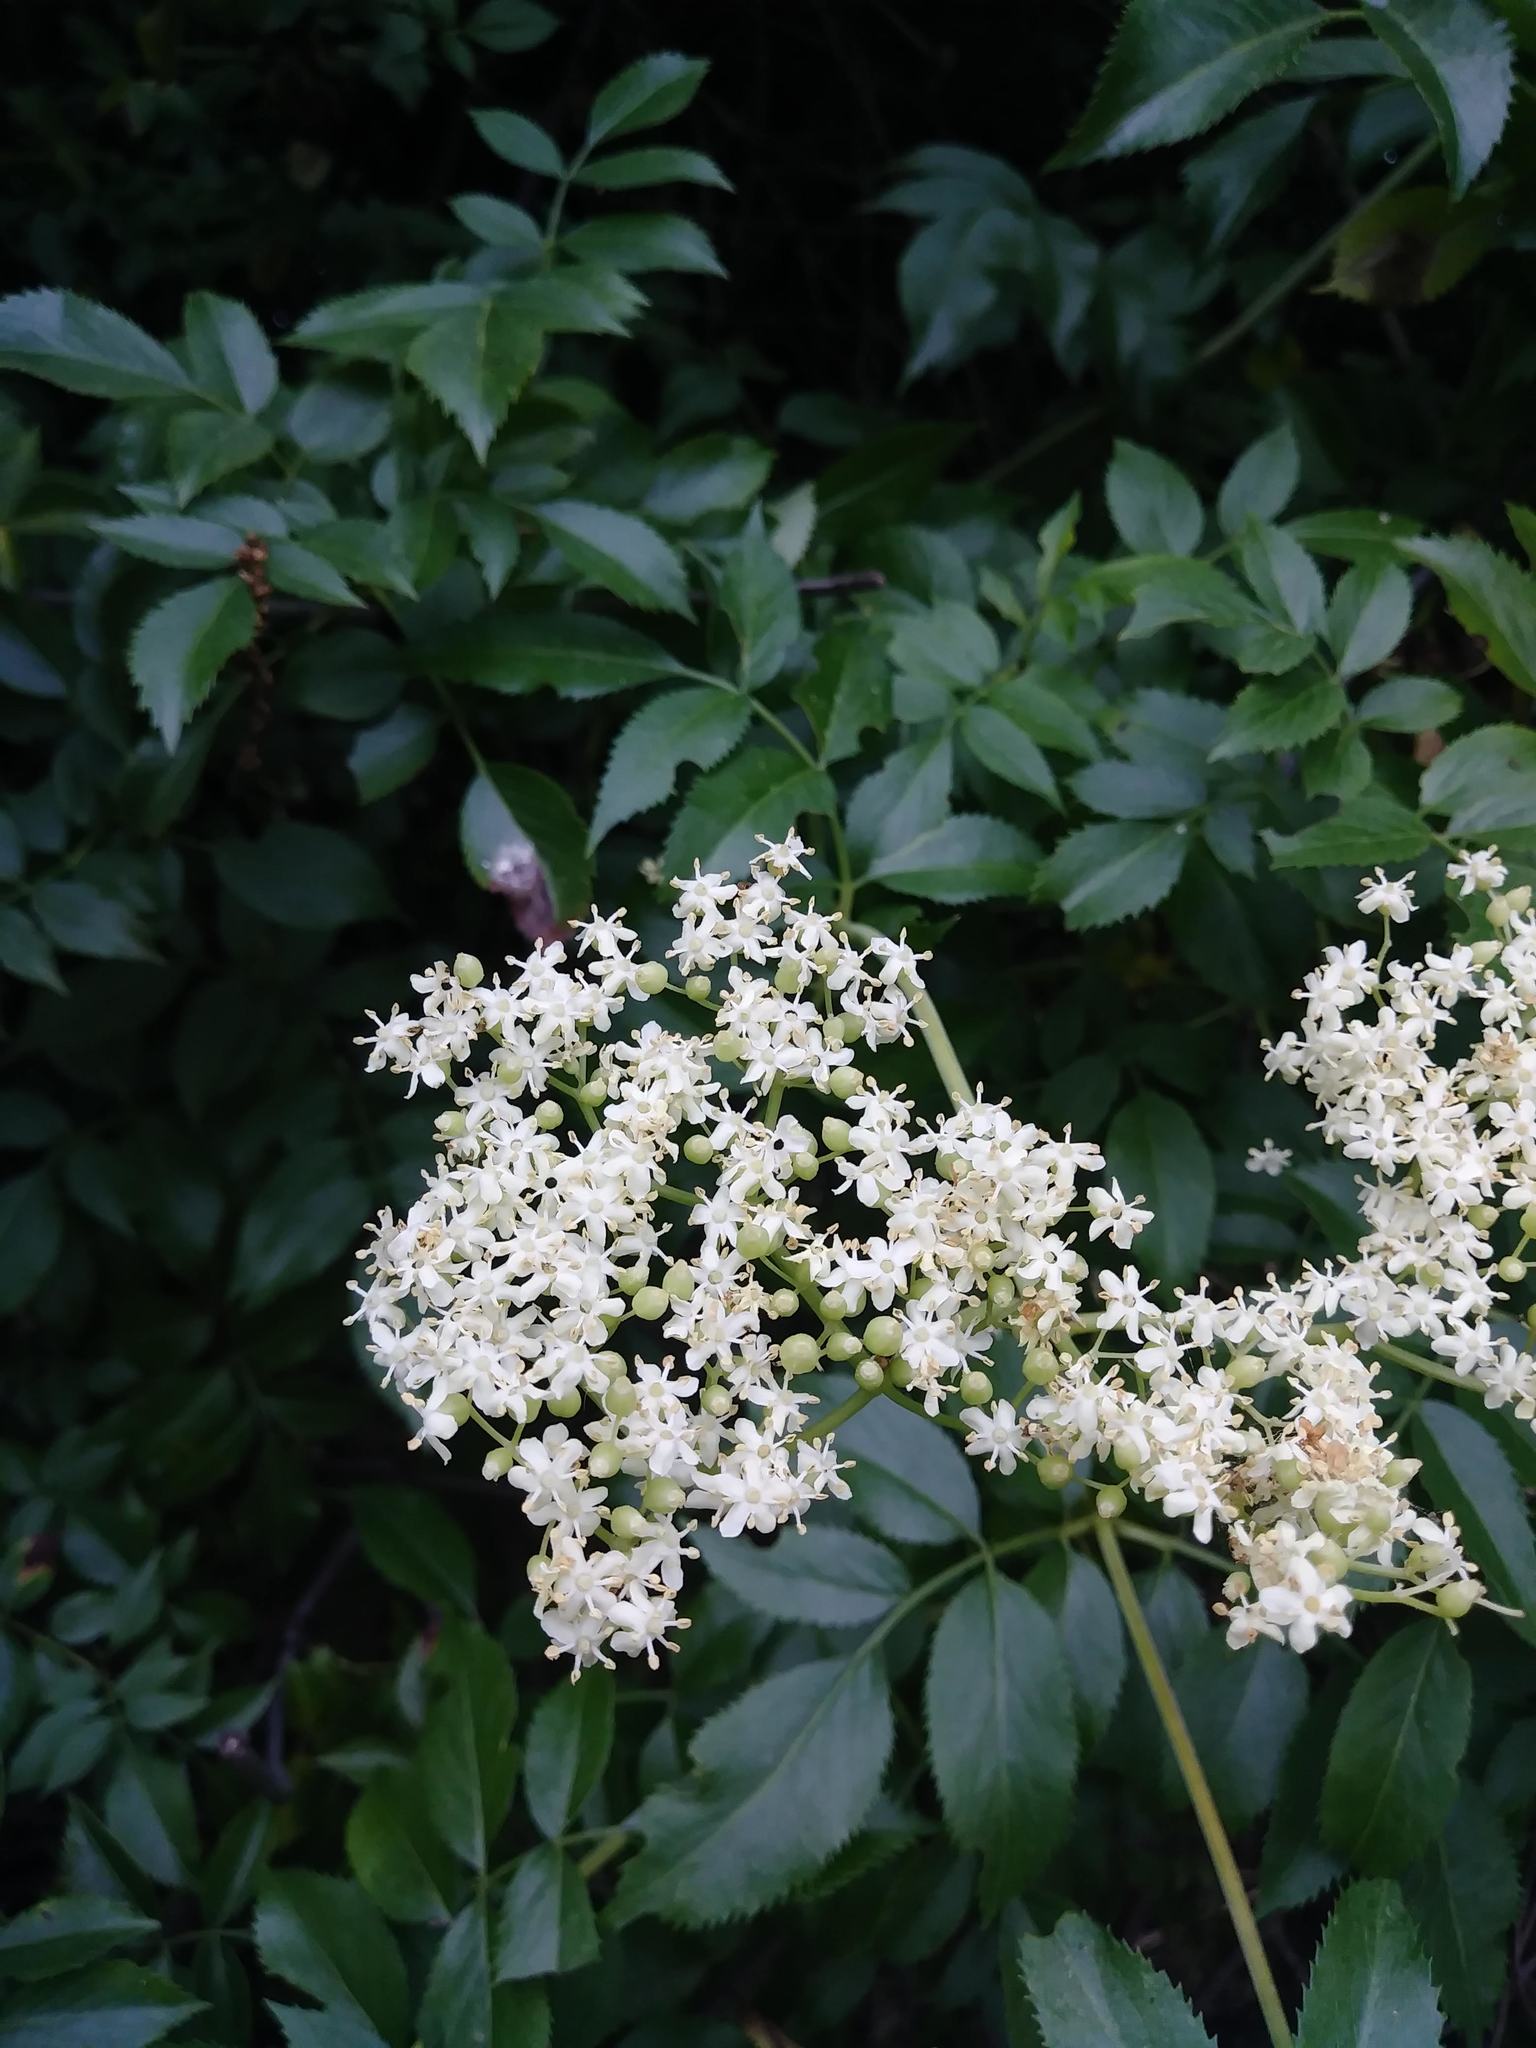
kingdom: Plantae
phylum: Tracheophyta
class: Magnoliopsida
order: Dipsacales
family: Viburnaceae
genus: Sambucus
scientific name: Sambucus cerulea
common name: Blue elder
